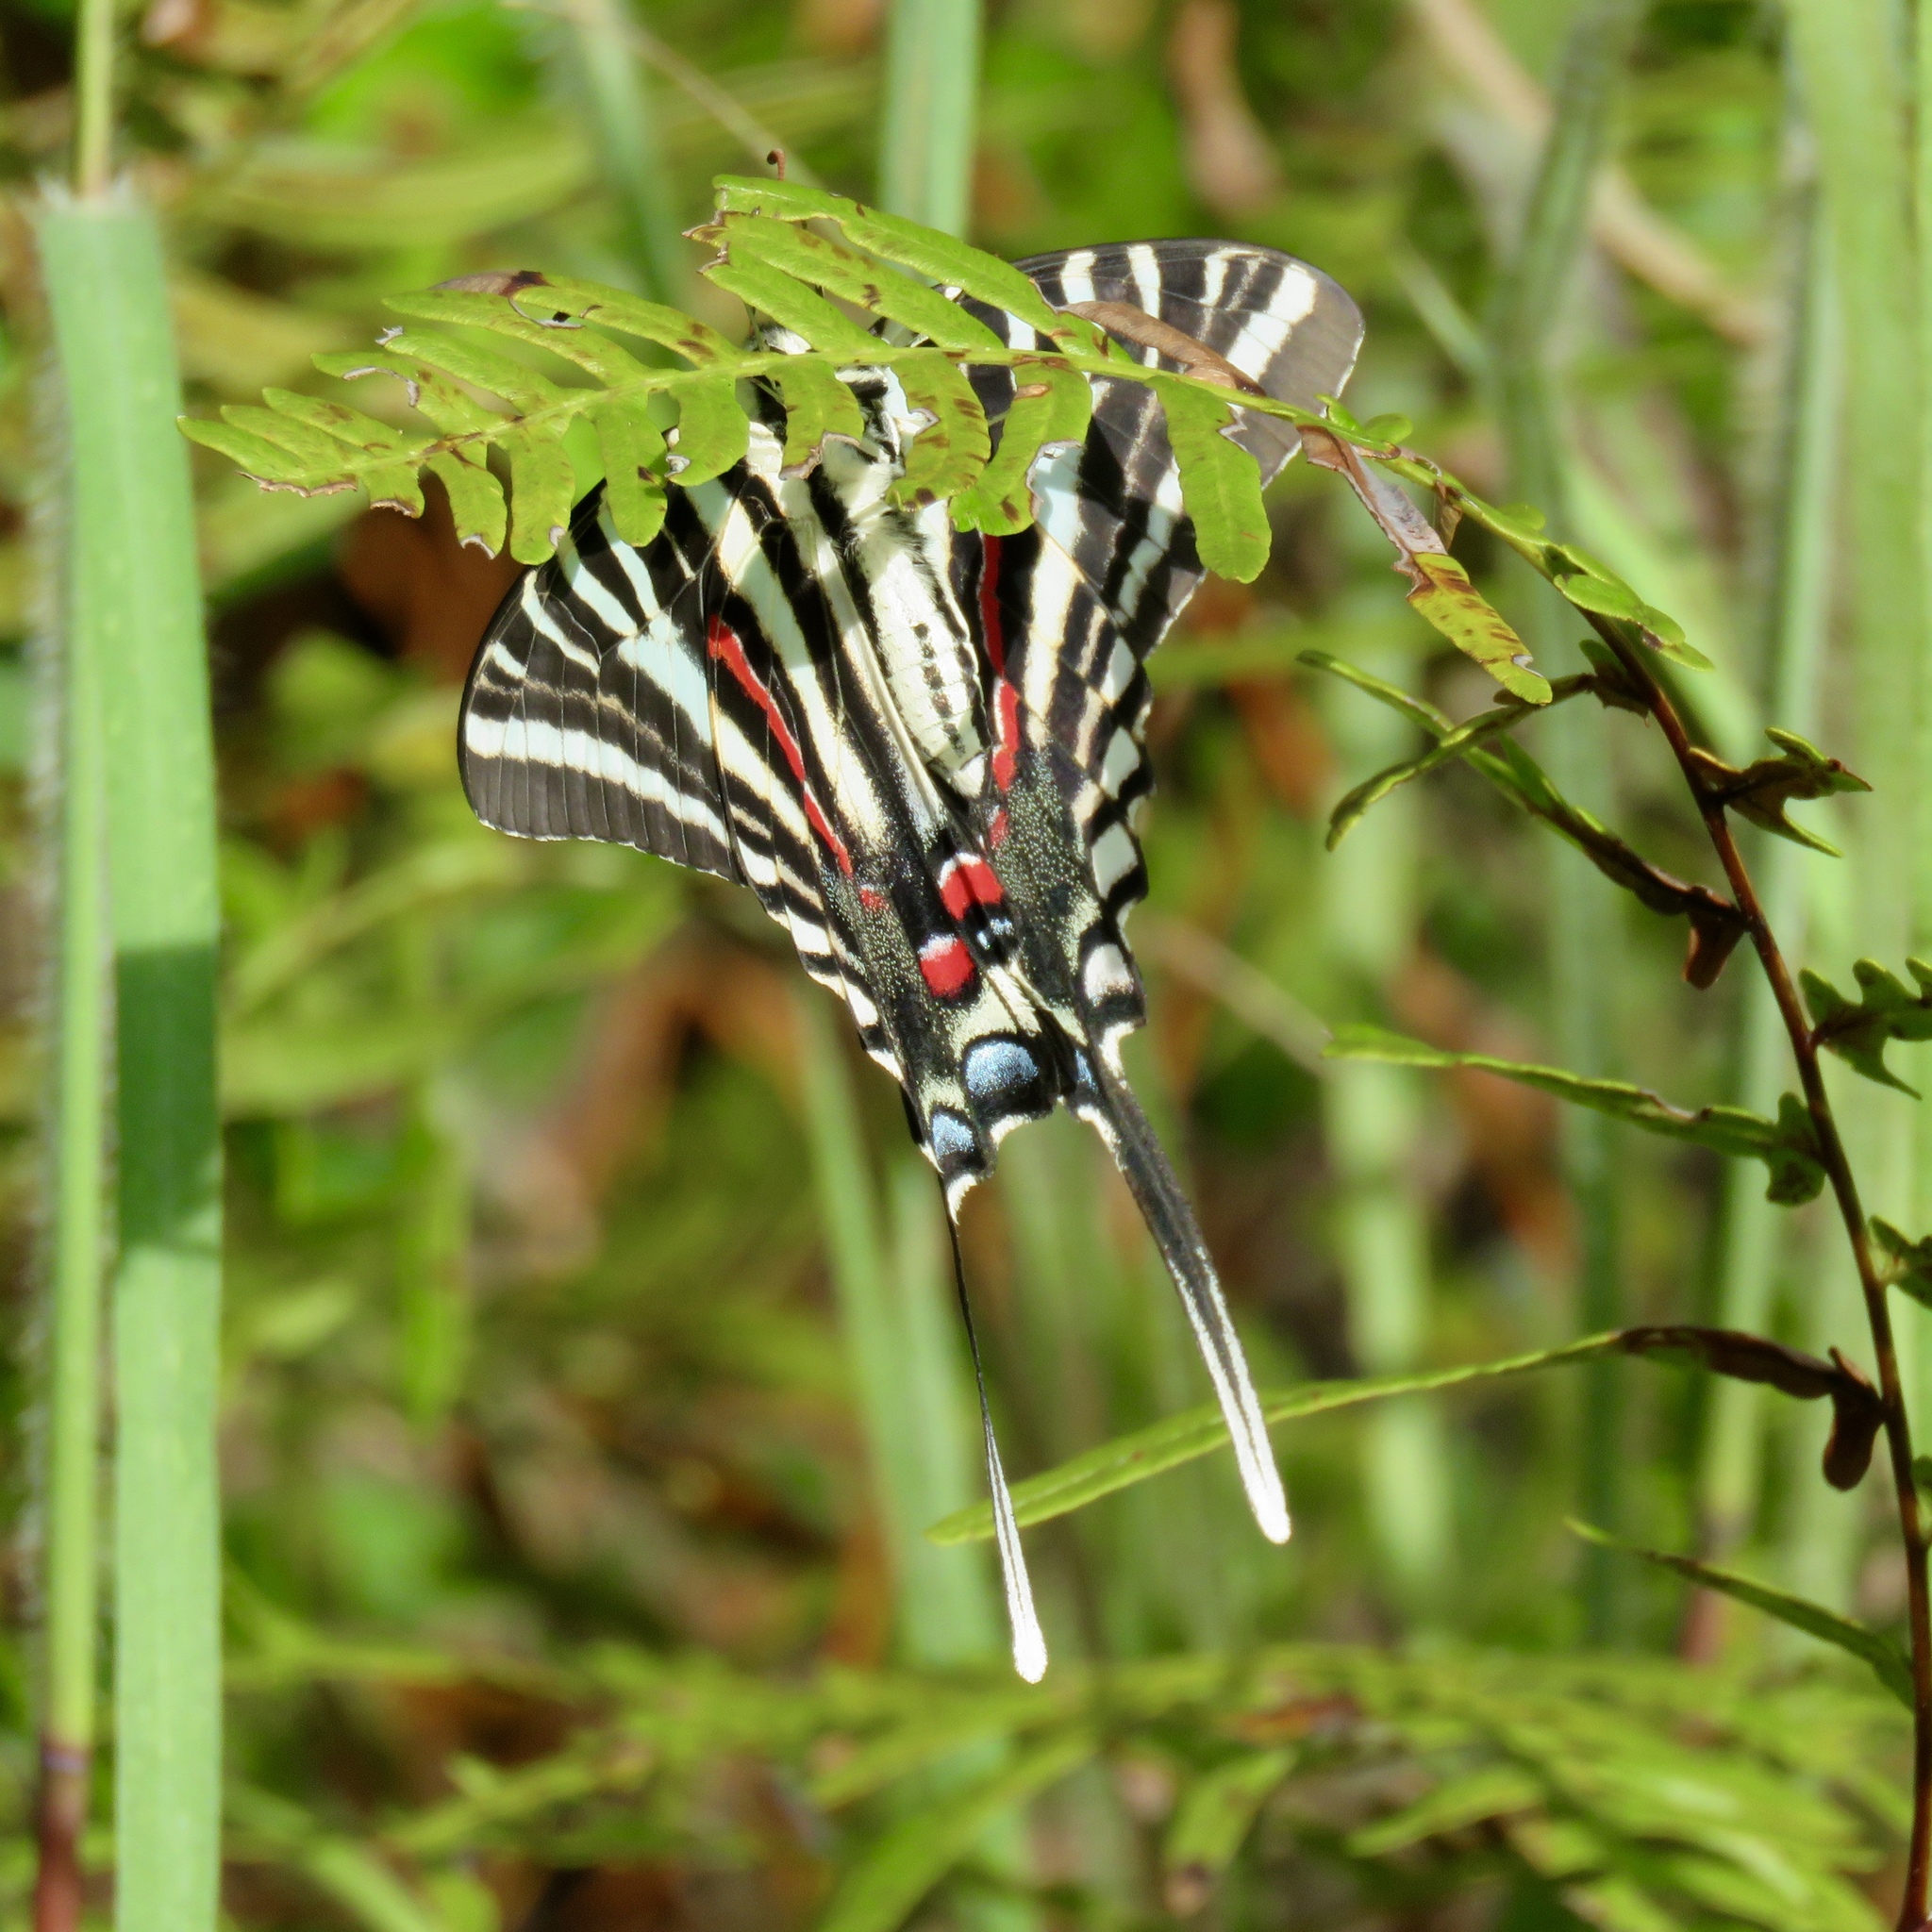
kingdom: Animalia
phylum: Arthropoda
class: Insecta
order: Lepidoptera
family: Papilionidae
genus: Protographium
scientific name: Protographium marcellus
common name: Zebra swallowtail
